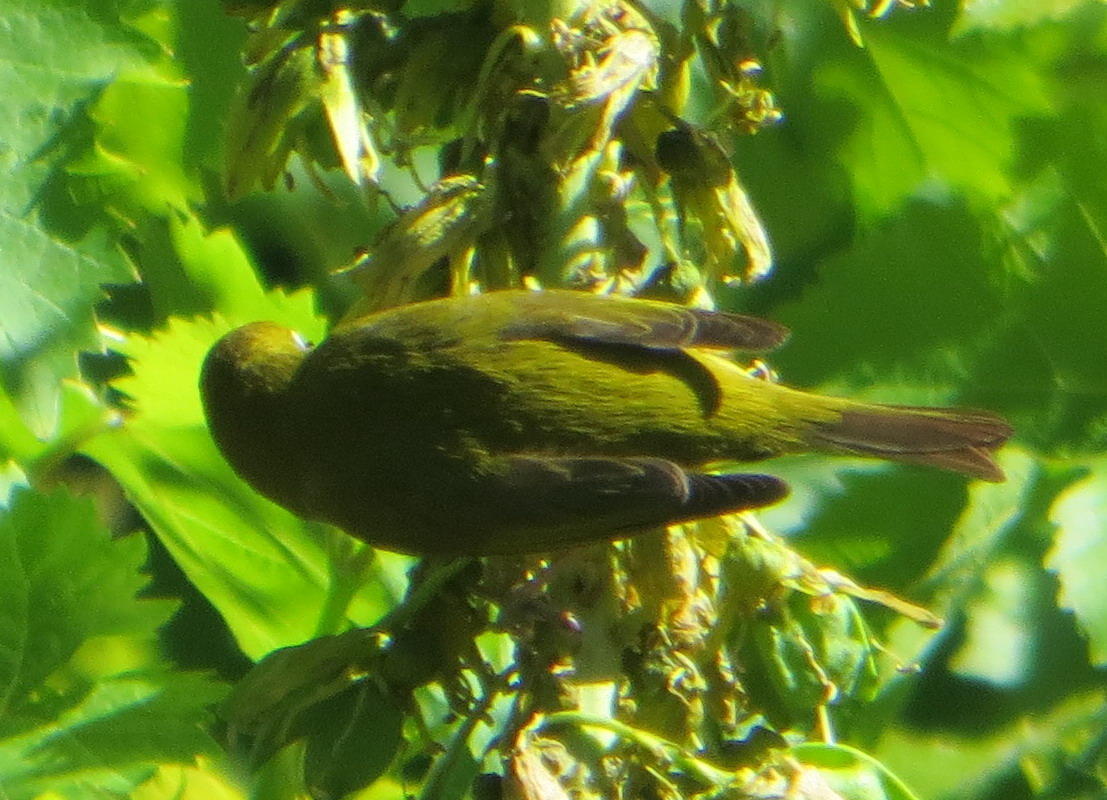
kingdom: Animalia
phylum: Chordata
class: Aves
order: Passeriformes
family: Zosteropidae
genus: Zosterops
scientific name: Zosterops virens
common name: Cape white-eye
